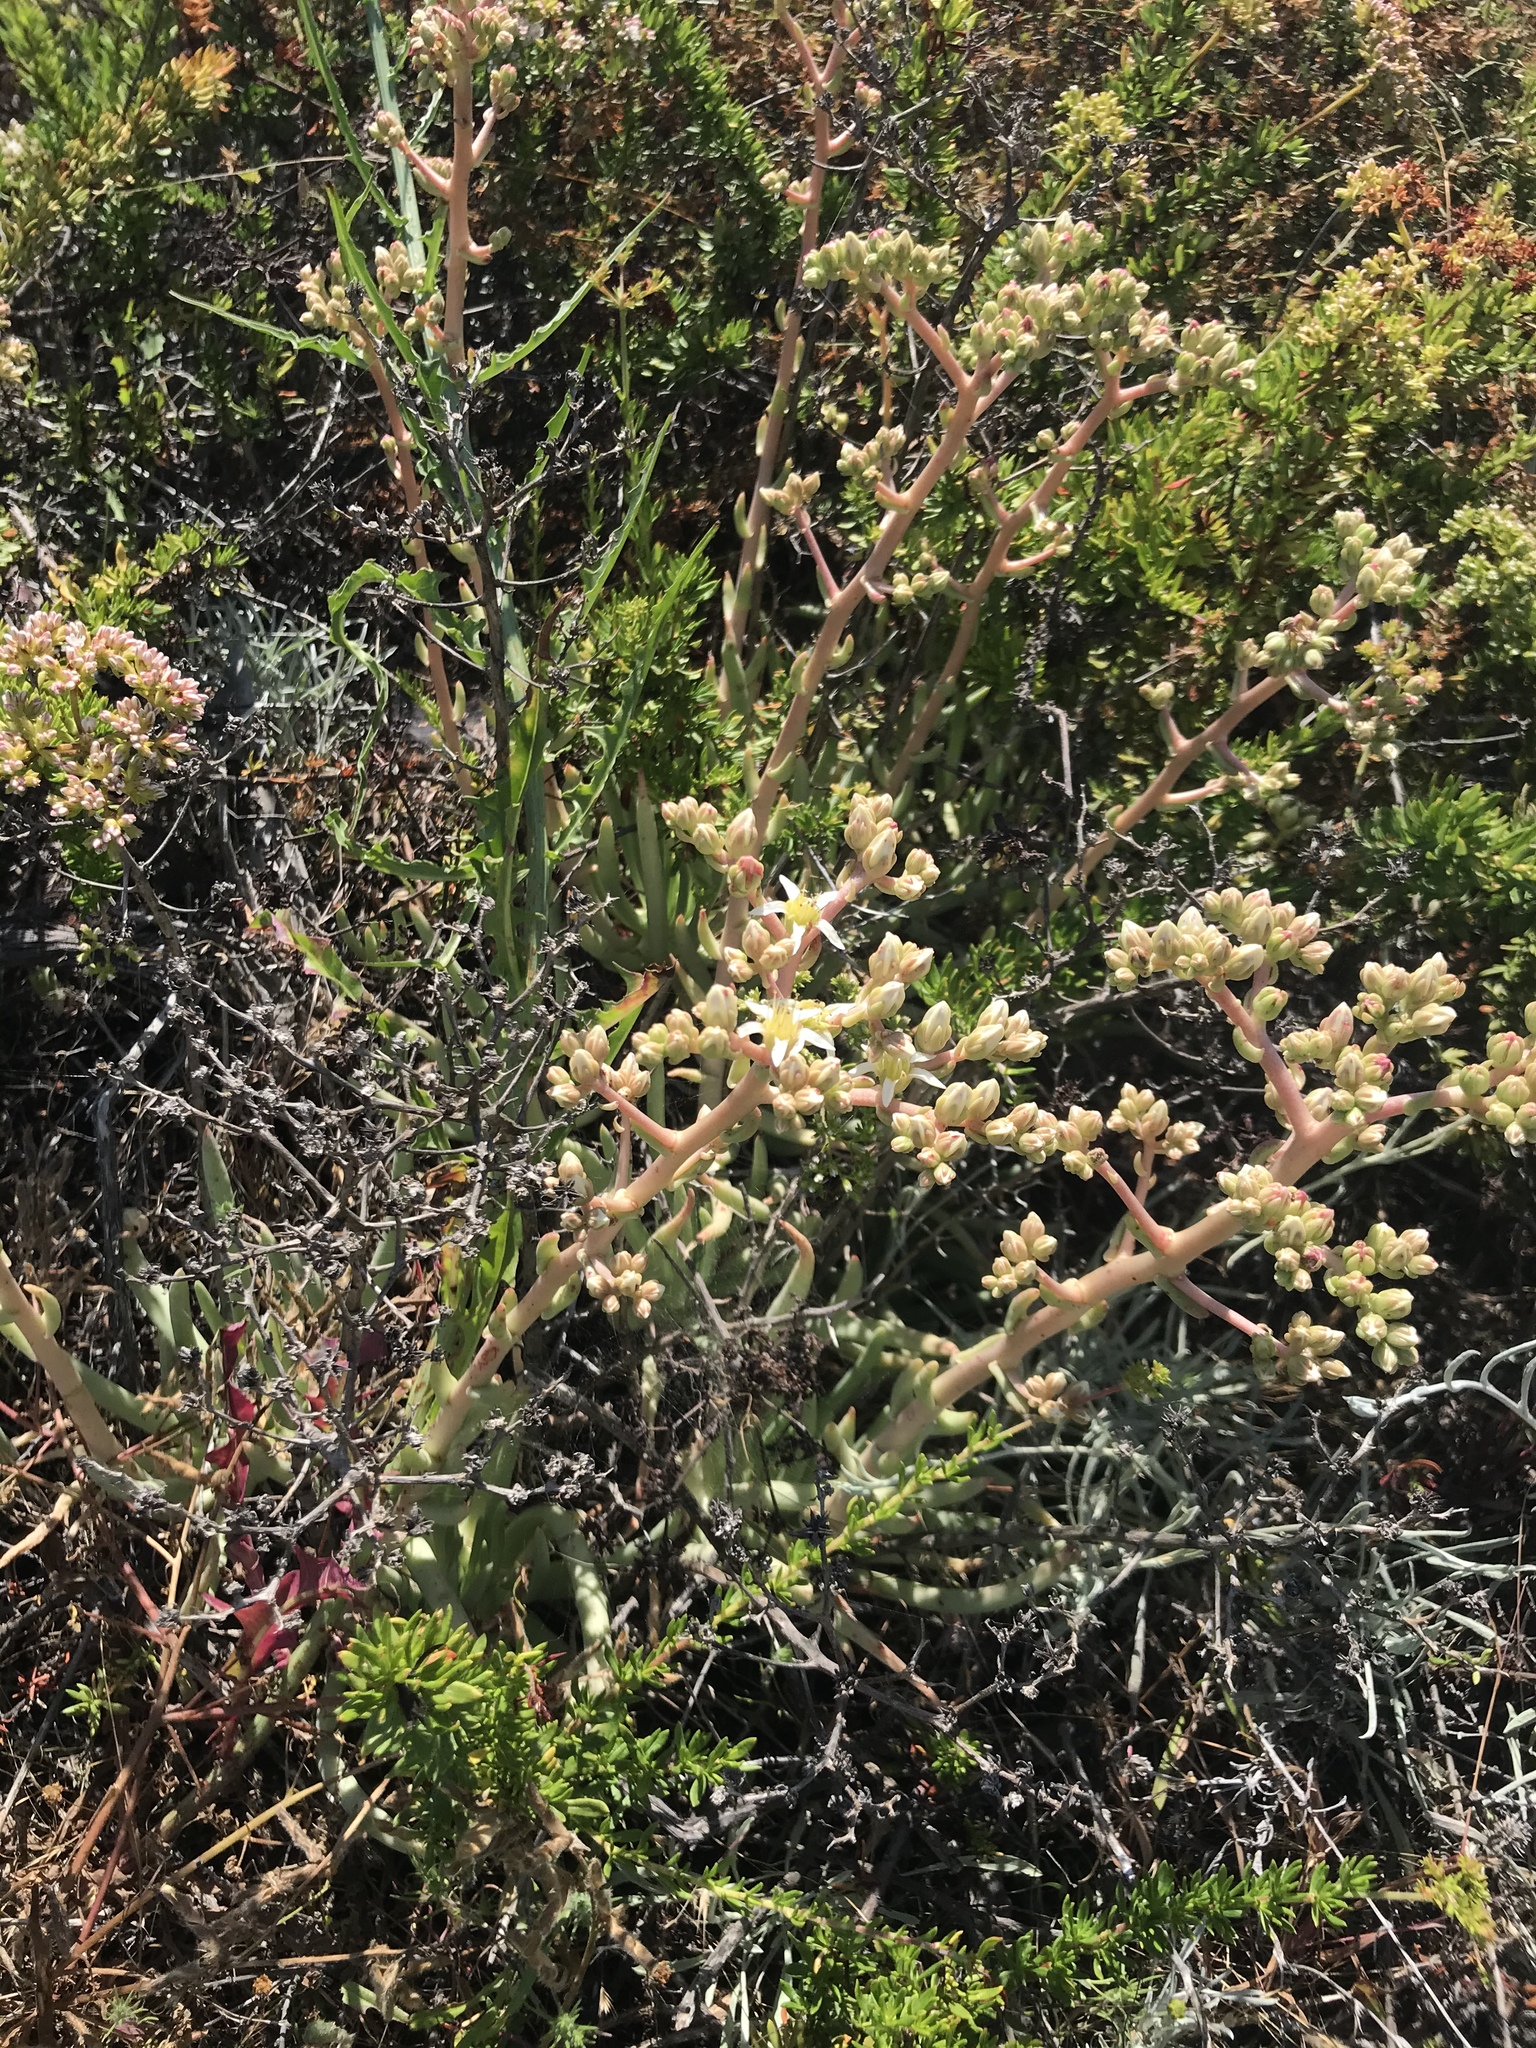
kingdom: Plantae
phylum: Tracheophyta
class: Magnoliopsida
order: Saxifragales
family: Crassulaceae
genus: Dudleya
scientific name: Dudleya edulis
